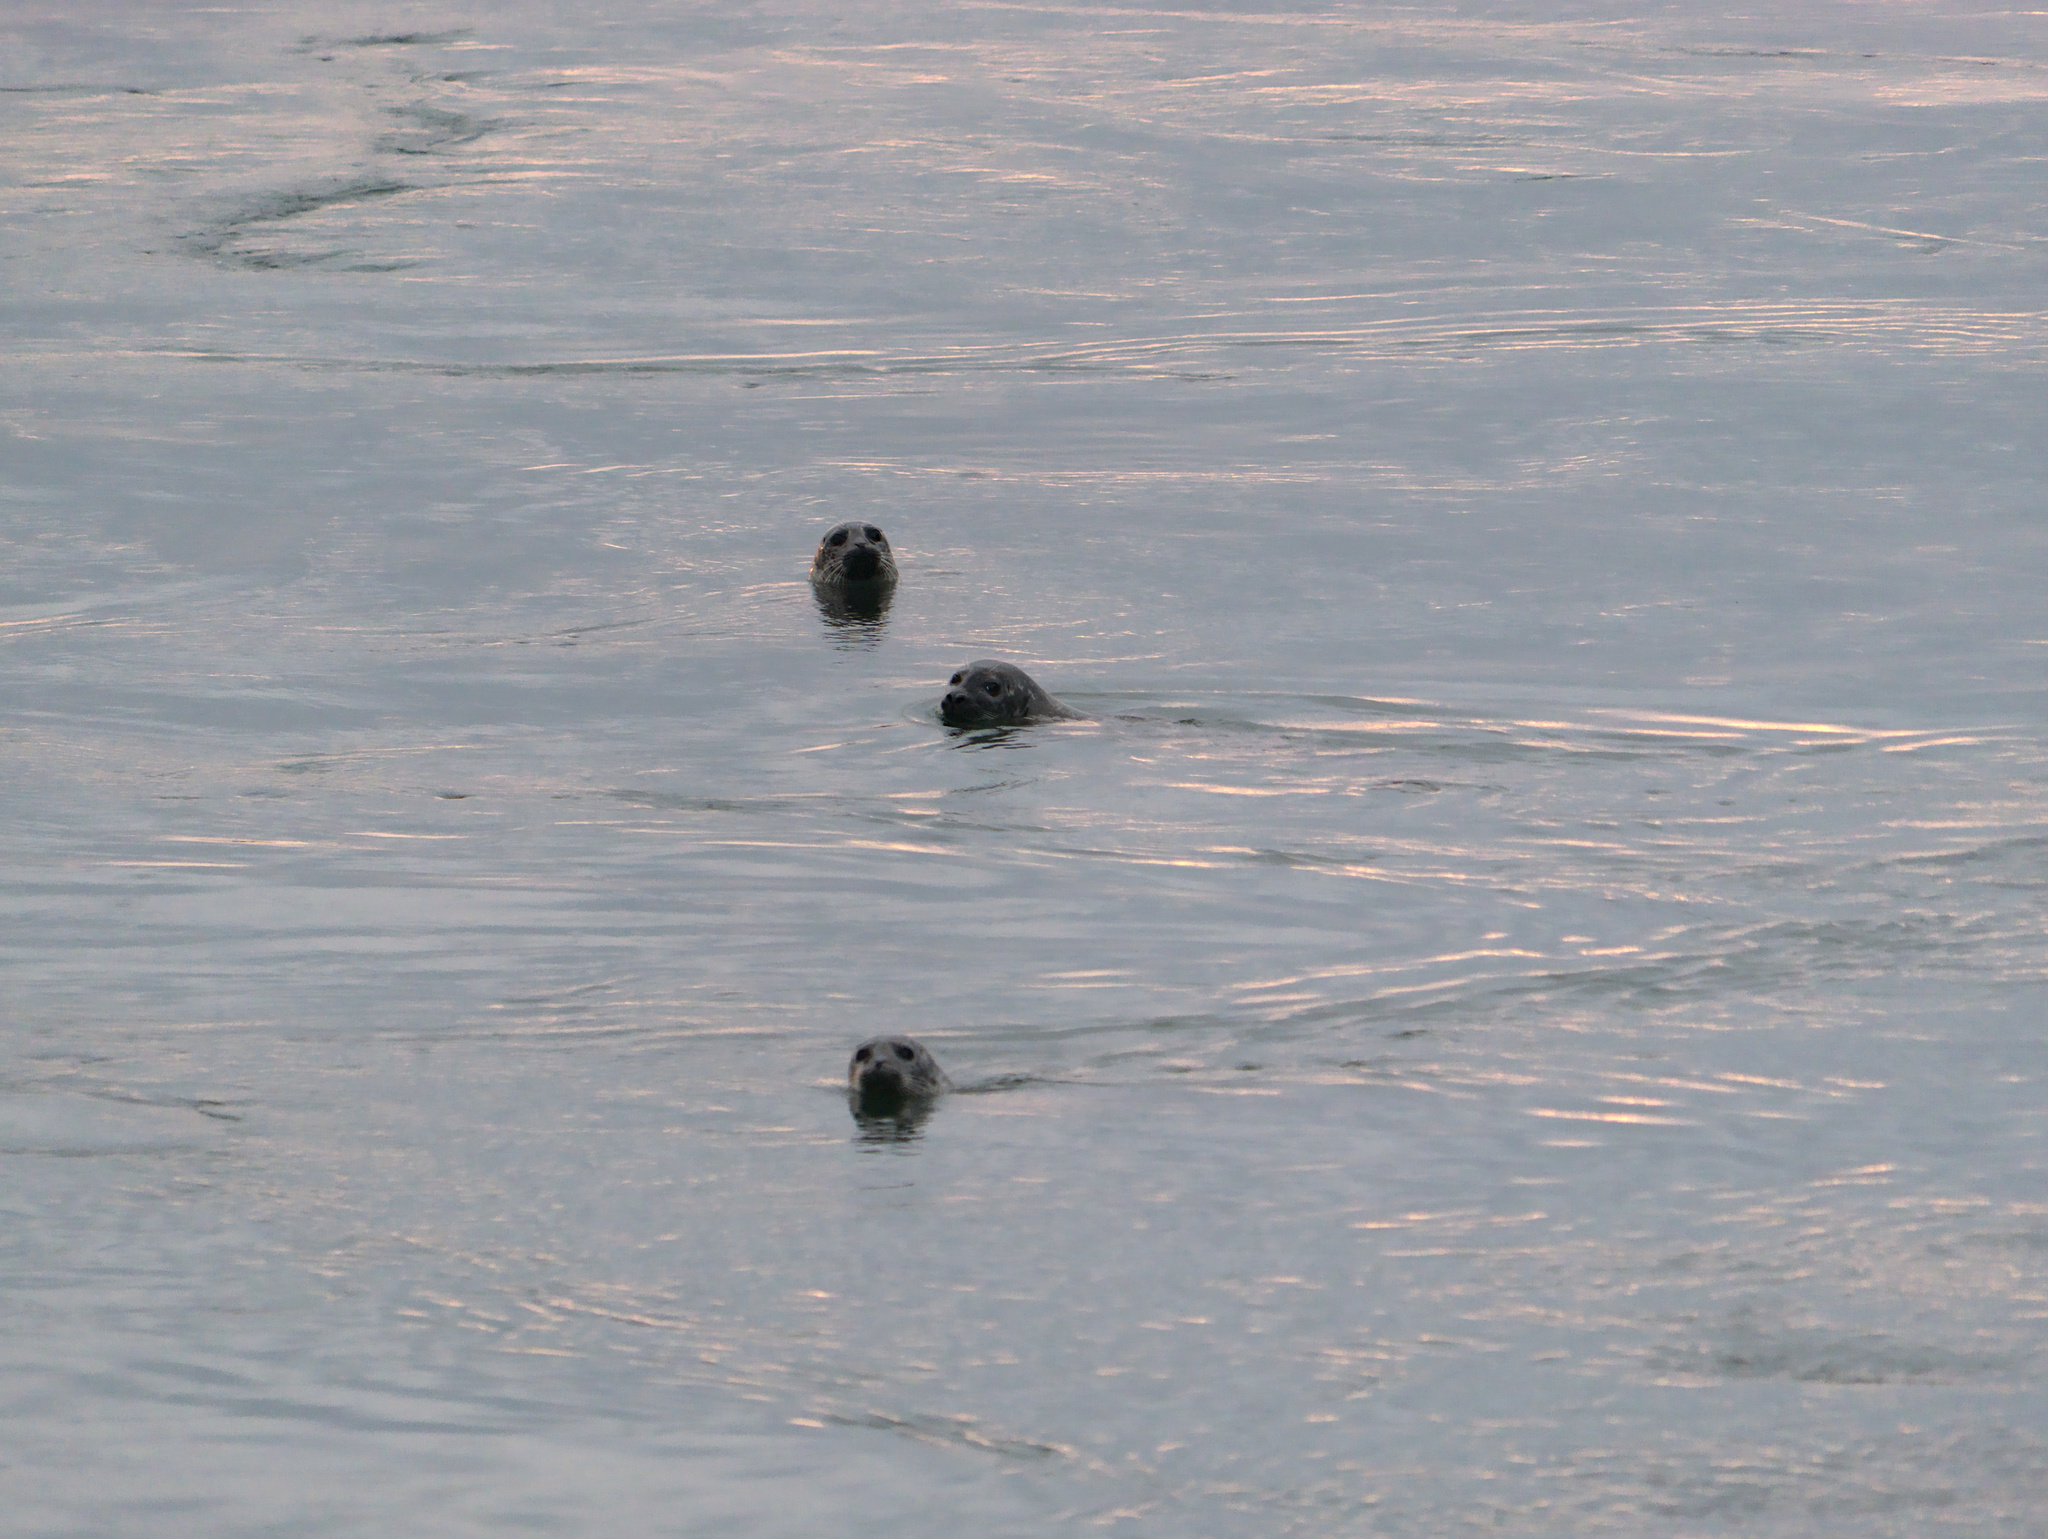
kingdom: Animalia
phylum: Chordata
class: Mammalia
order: Carnivora
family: Phocidae
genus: Phoca
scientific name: Phoca vitulina
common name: Harbor seal
